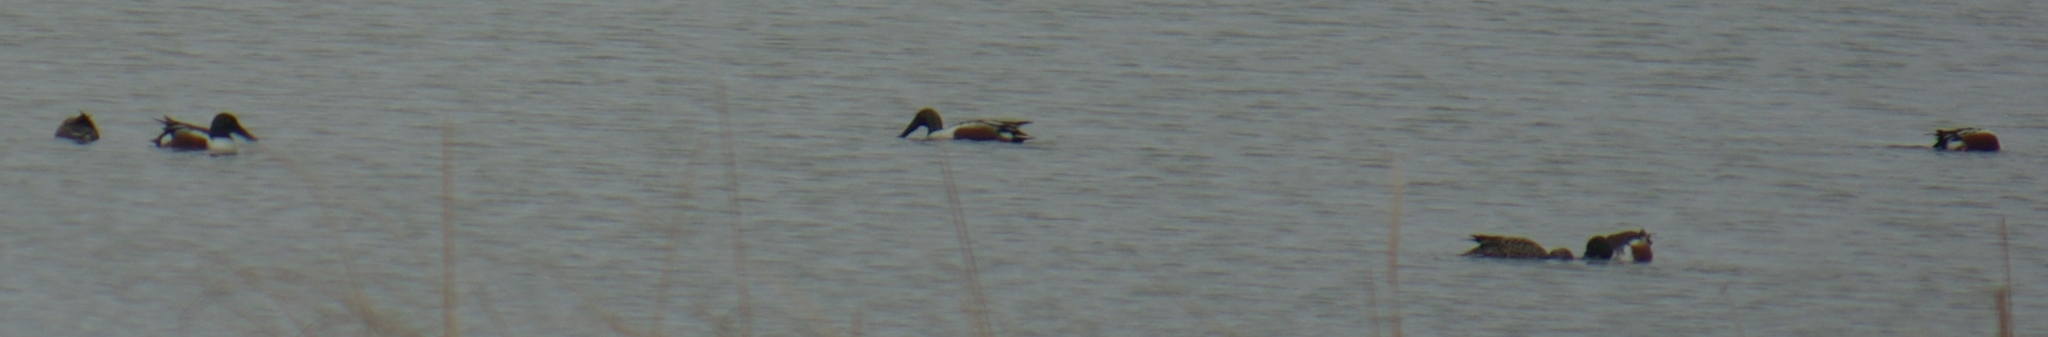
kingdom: Animalia
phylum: Chordata
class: Aves
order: Anseriformes
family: Anatidae
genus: Spatula
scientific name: Spatula clypeata
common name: Northern shoveler
